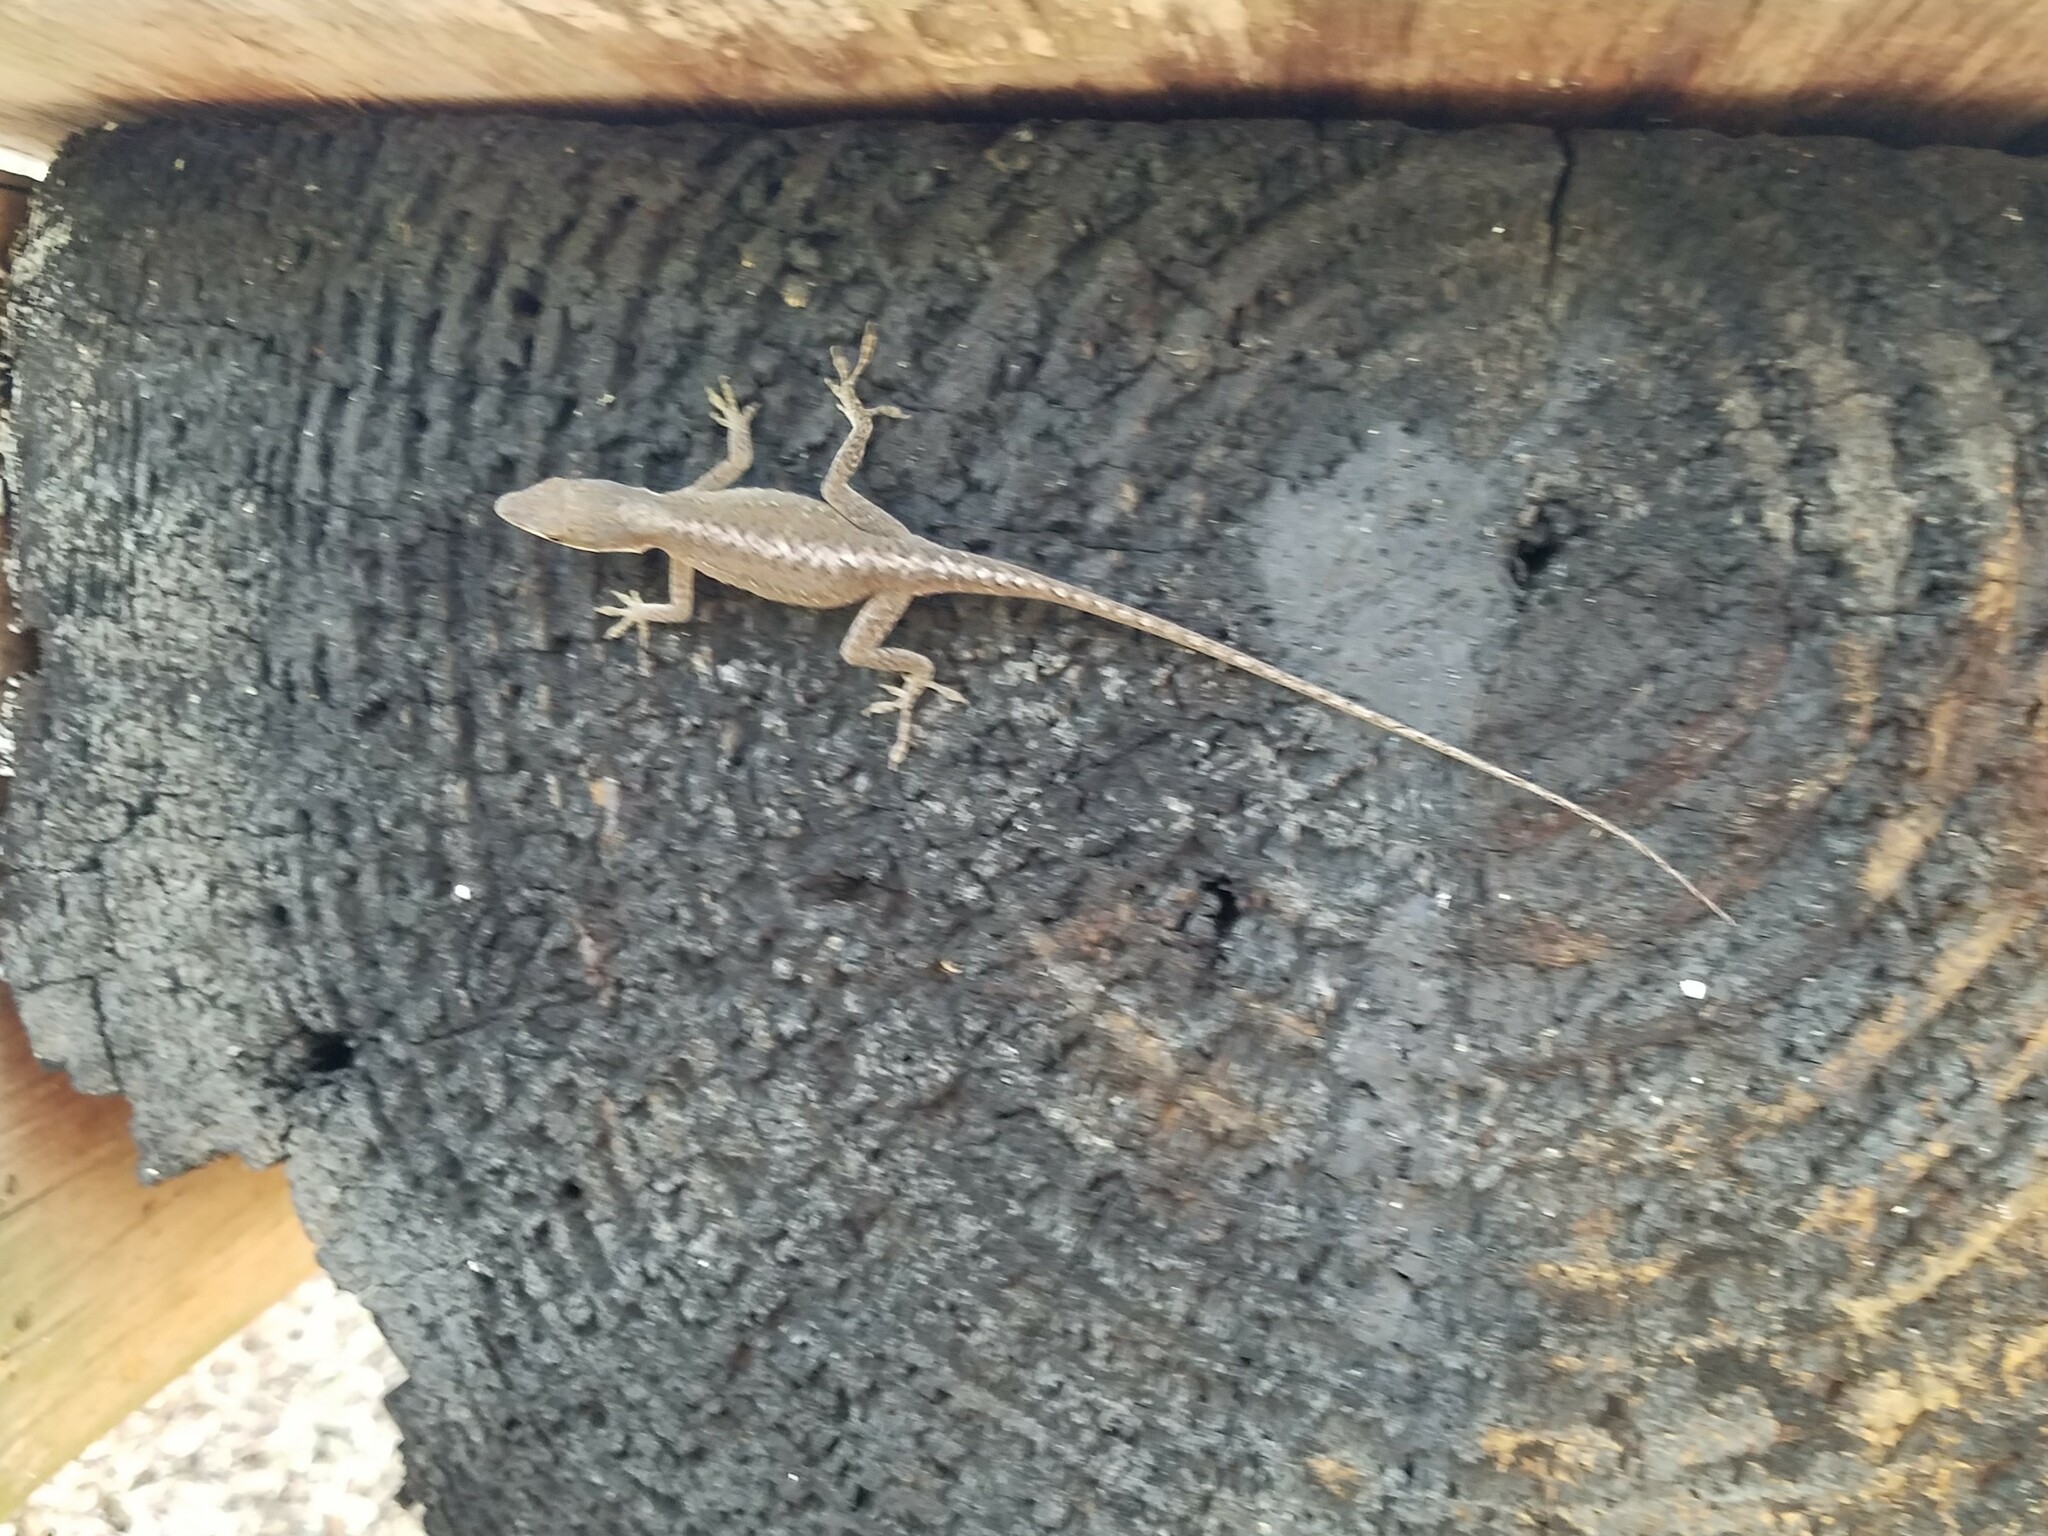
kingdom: Animalia
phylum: Chordata
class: Squamata
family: Dactyloidae
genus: Anolis
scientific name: Anolis carolinensis
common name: Green anole
